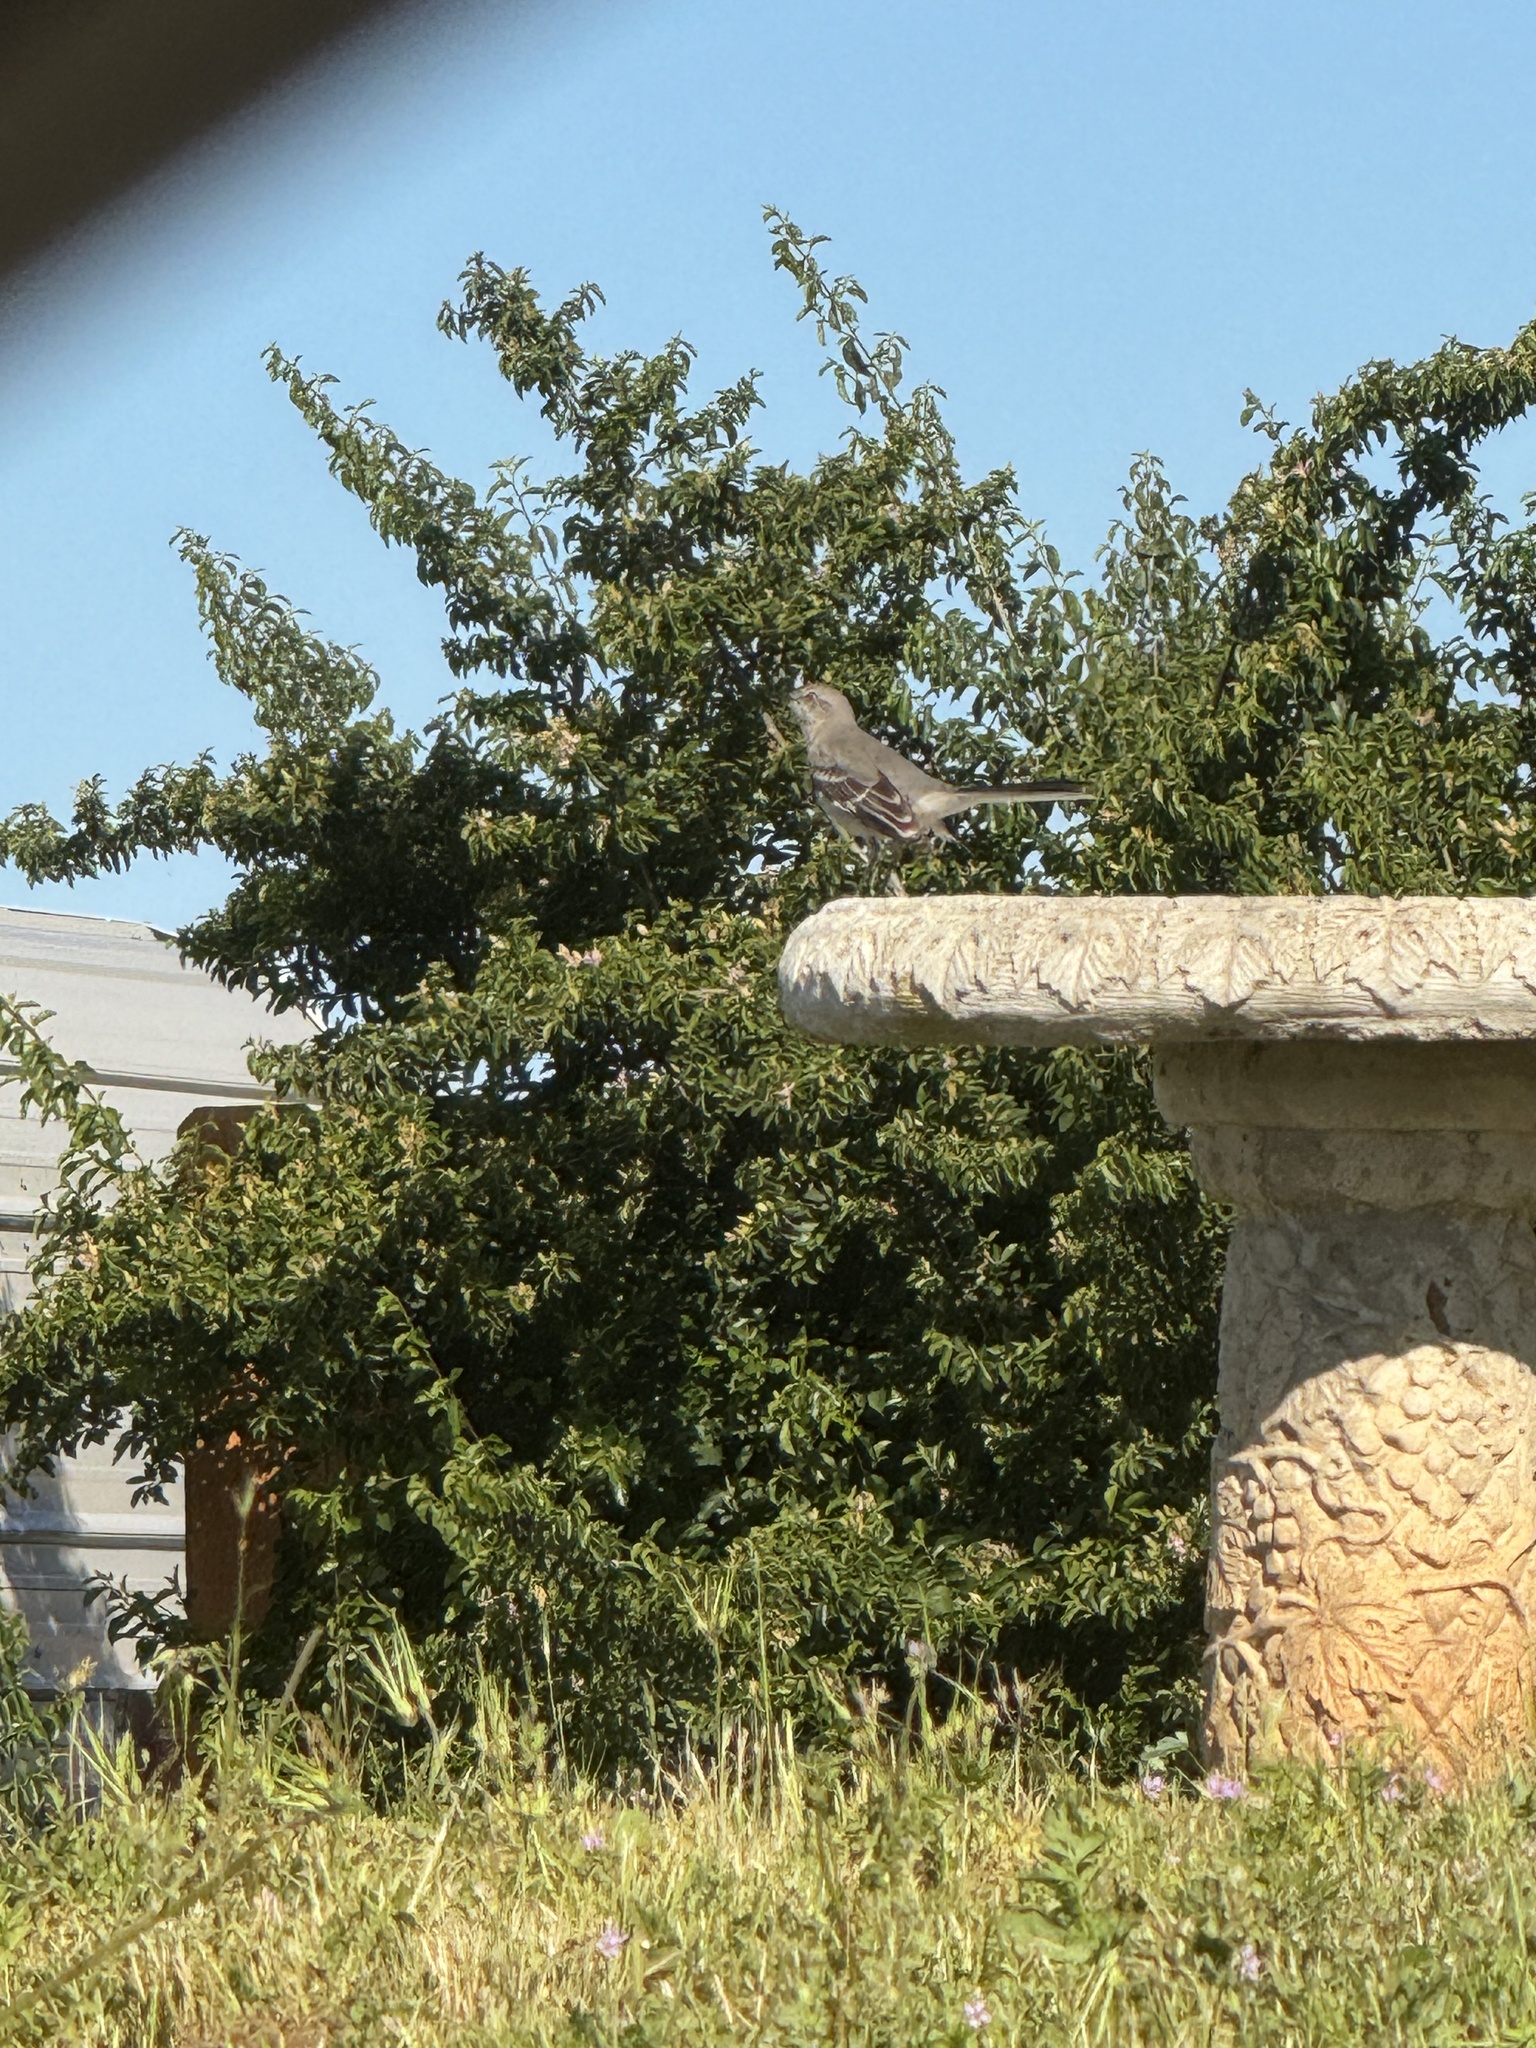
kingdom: Animalia
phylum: Chordata
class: Aves
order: Passeriformes
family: Mimidae
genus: Mimus
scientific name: Mimus polyglottos
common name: Northern mockingbird
